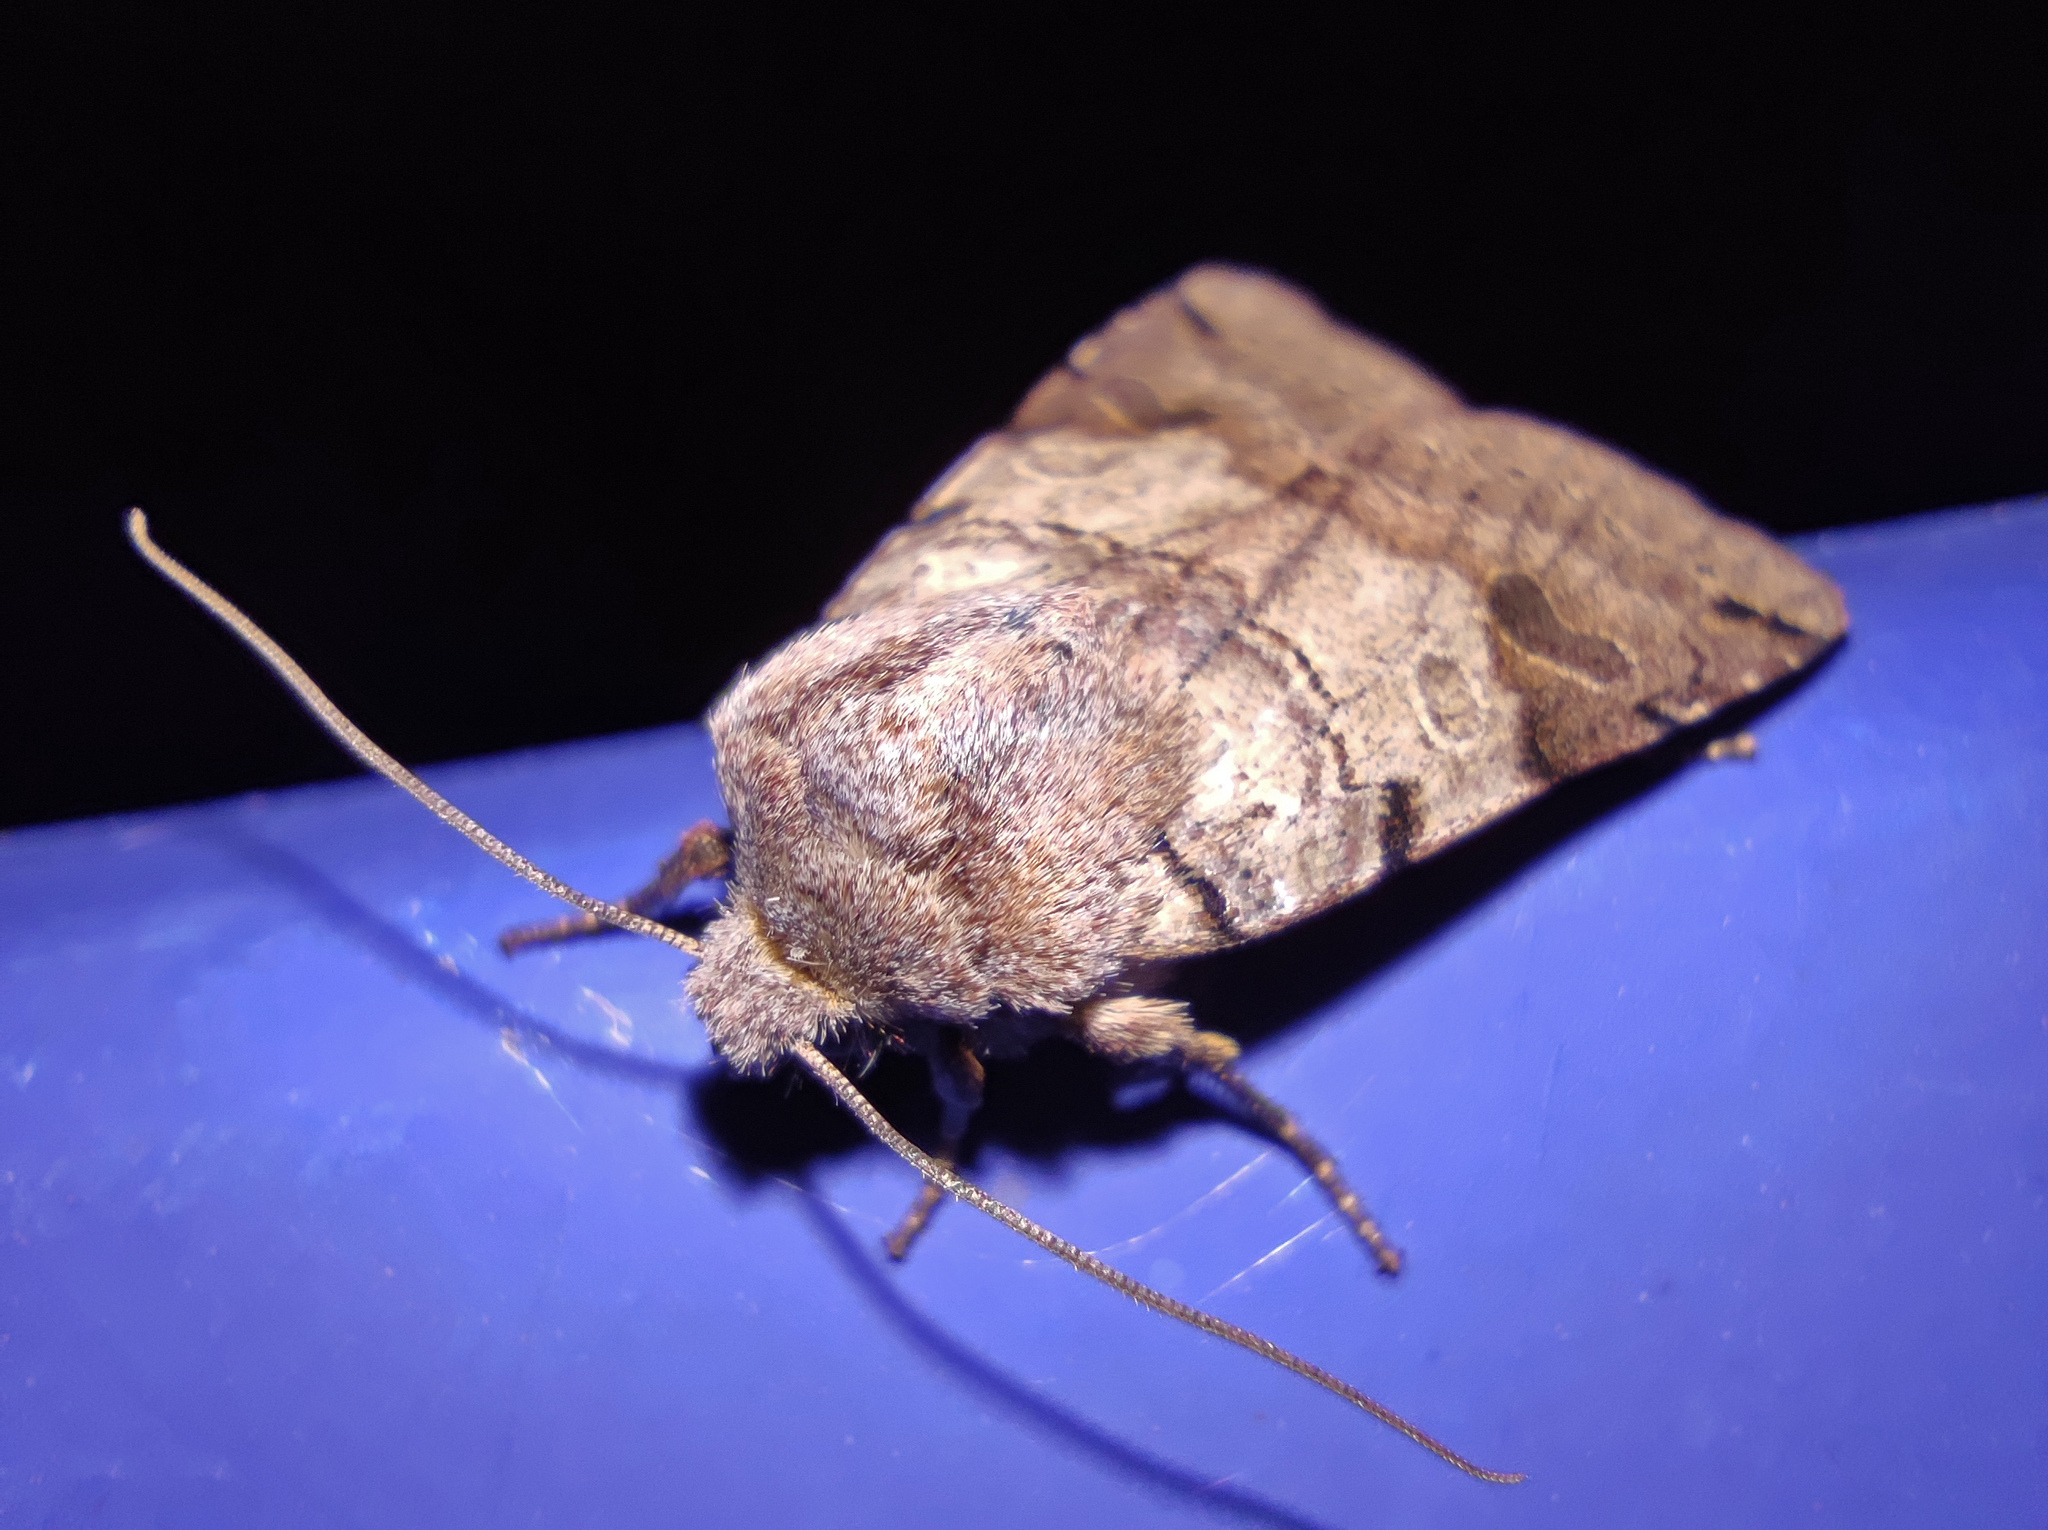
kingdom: Animalia
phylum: Arthropoda
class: Insecta
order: Lepidoptera
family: Noctuidae
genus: Agrochola
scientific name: Agrochola litura
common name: Brown-spot pinion
